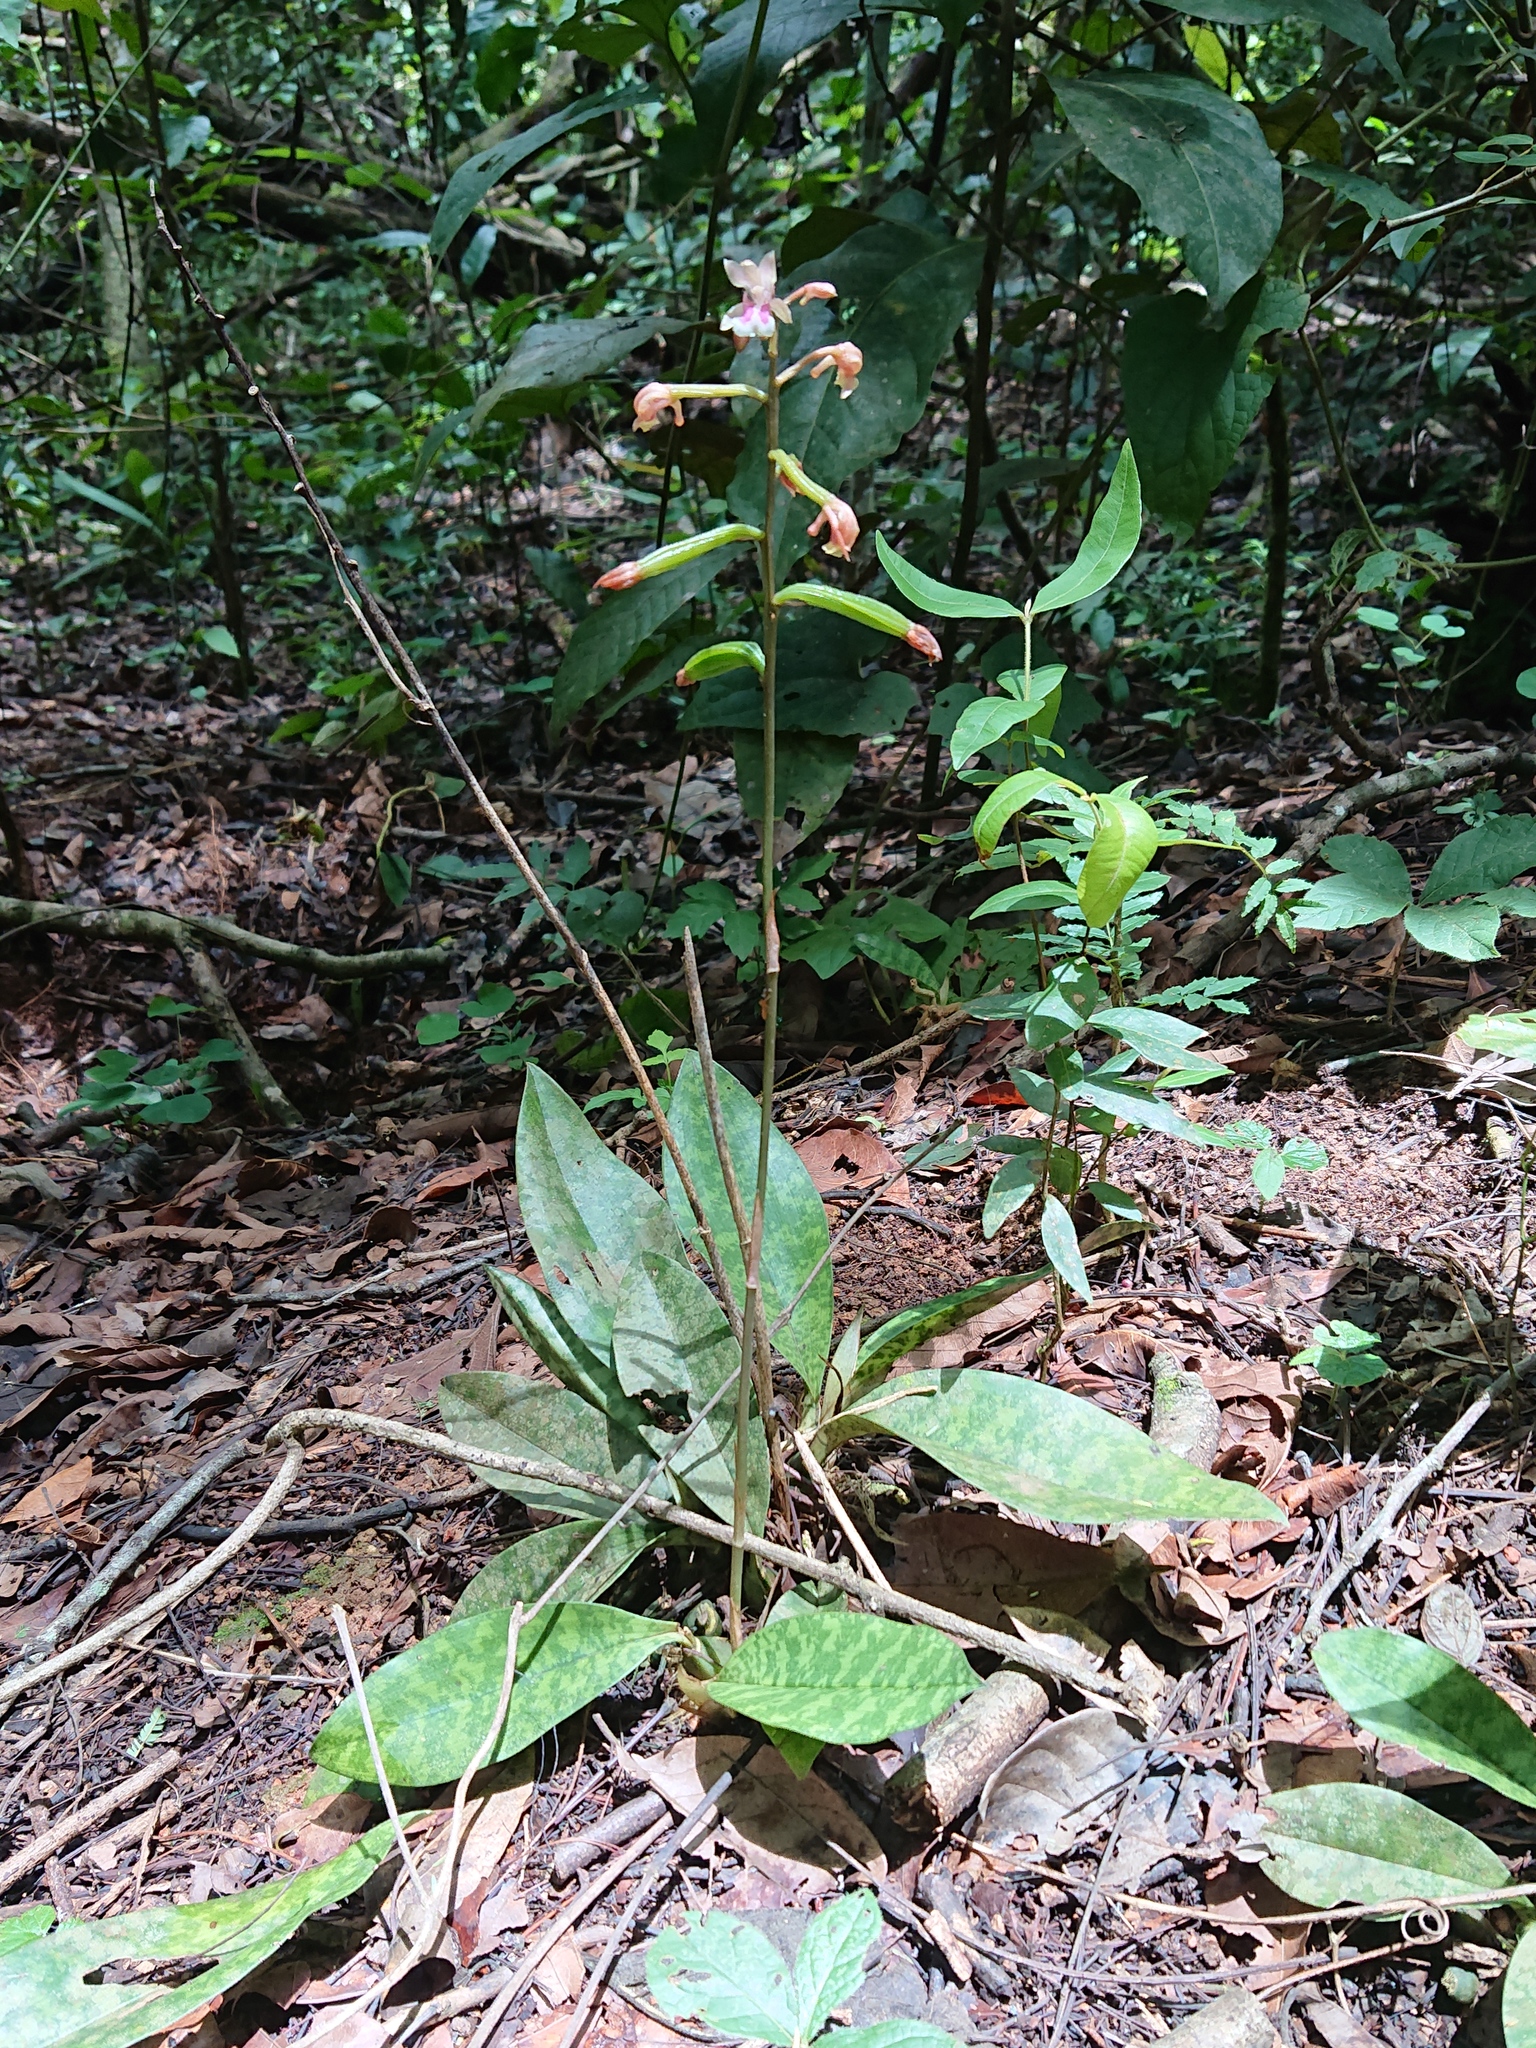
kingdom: Plantae
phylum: Tracheophyta
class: Liliopsida
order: Asparagales
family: Orchidaceae
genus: Eulophia
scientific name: Eulophia maculata
